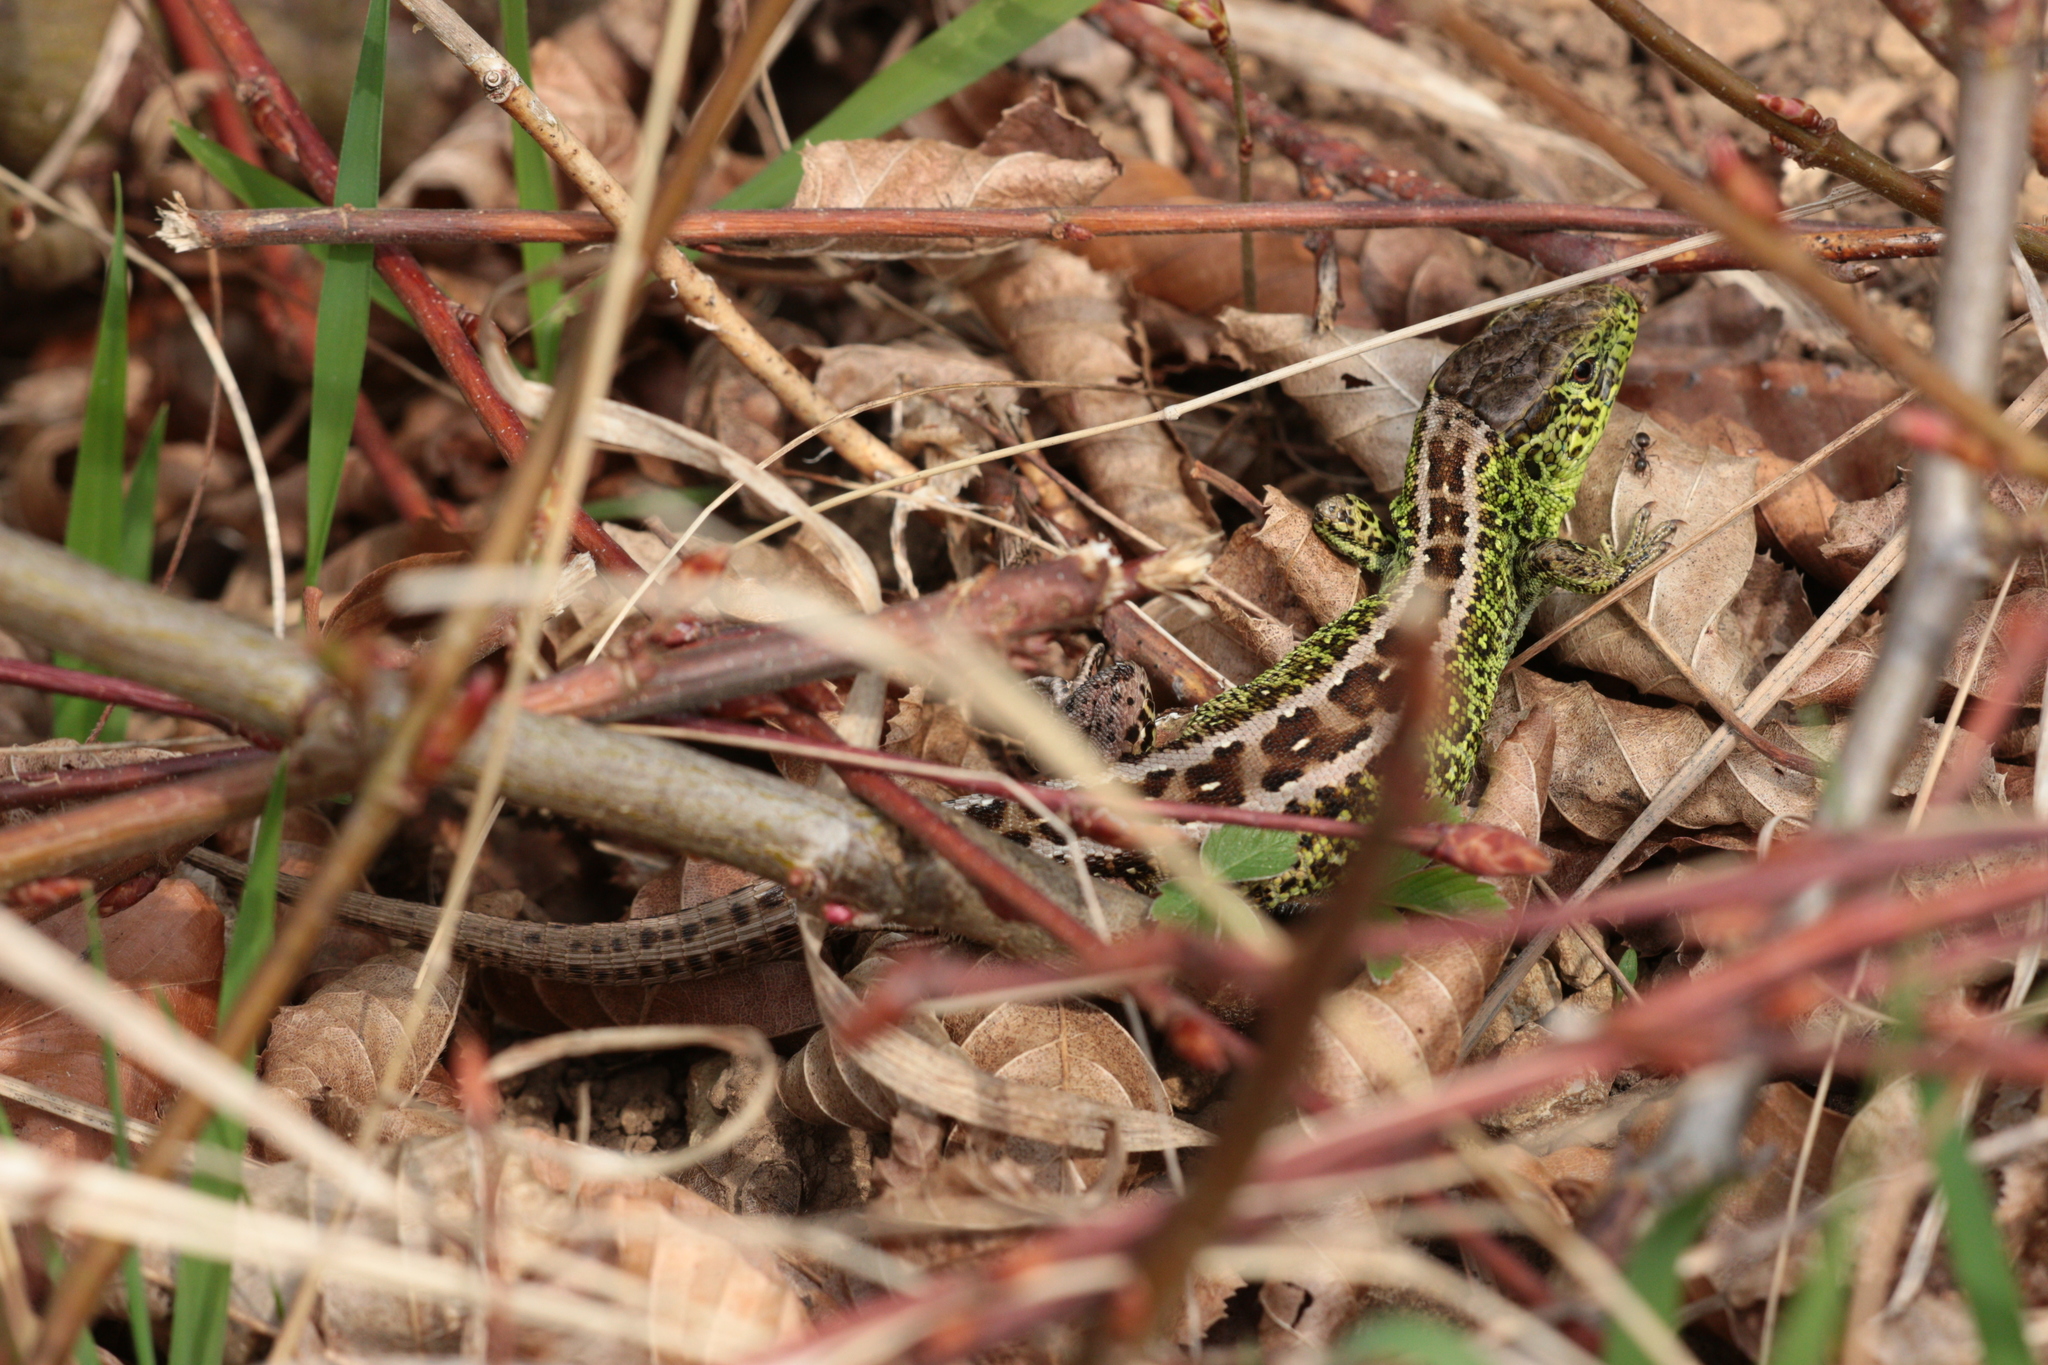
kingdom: Animalia
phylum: Chordata
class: Squamata
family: Lacertidae
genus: Lacerta
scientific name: Lacerta agilis
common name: Sand lizard
